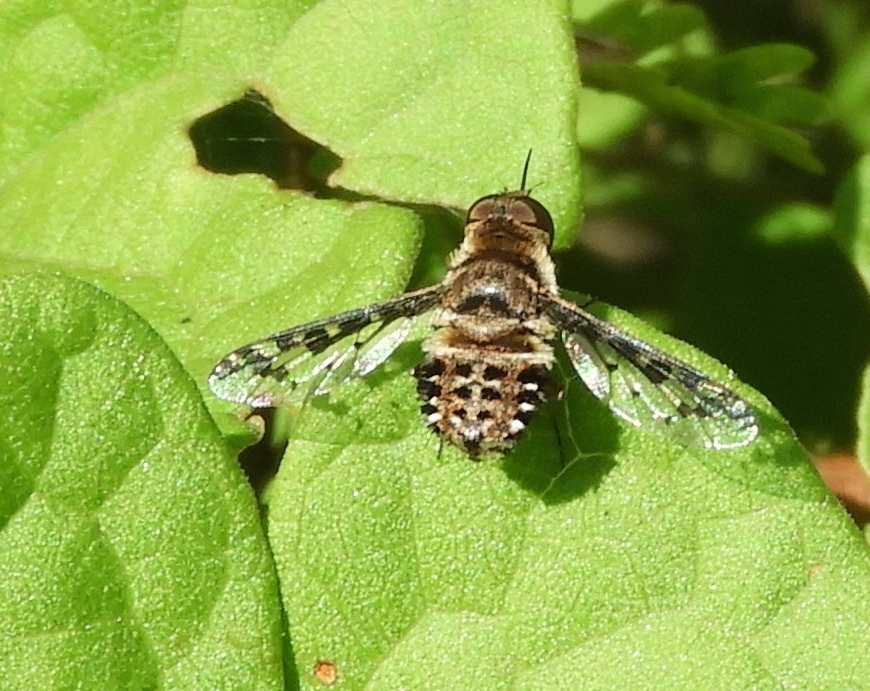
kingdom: Animalia
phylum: Arthropoda
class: Insecta
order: Diptera
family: Bombyliidae
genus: Lepidanthrax
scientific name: Lepidanthrax
